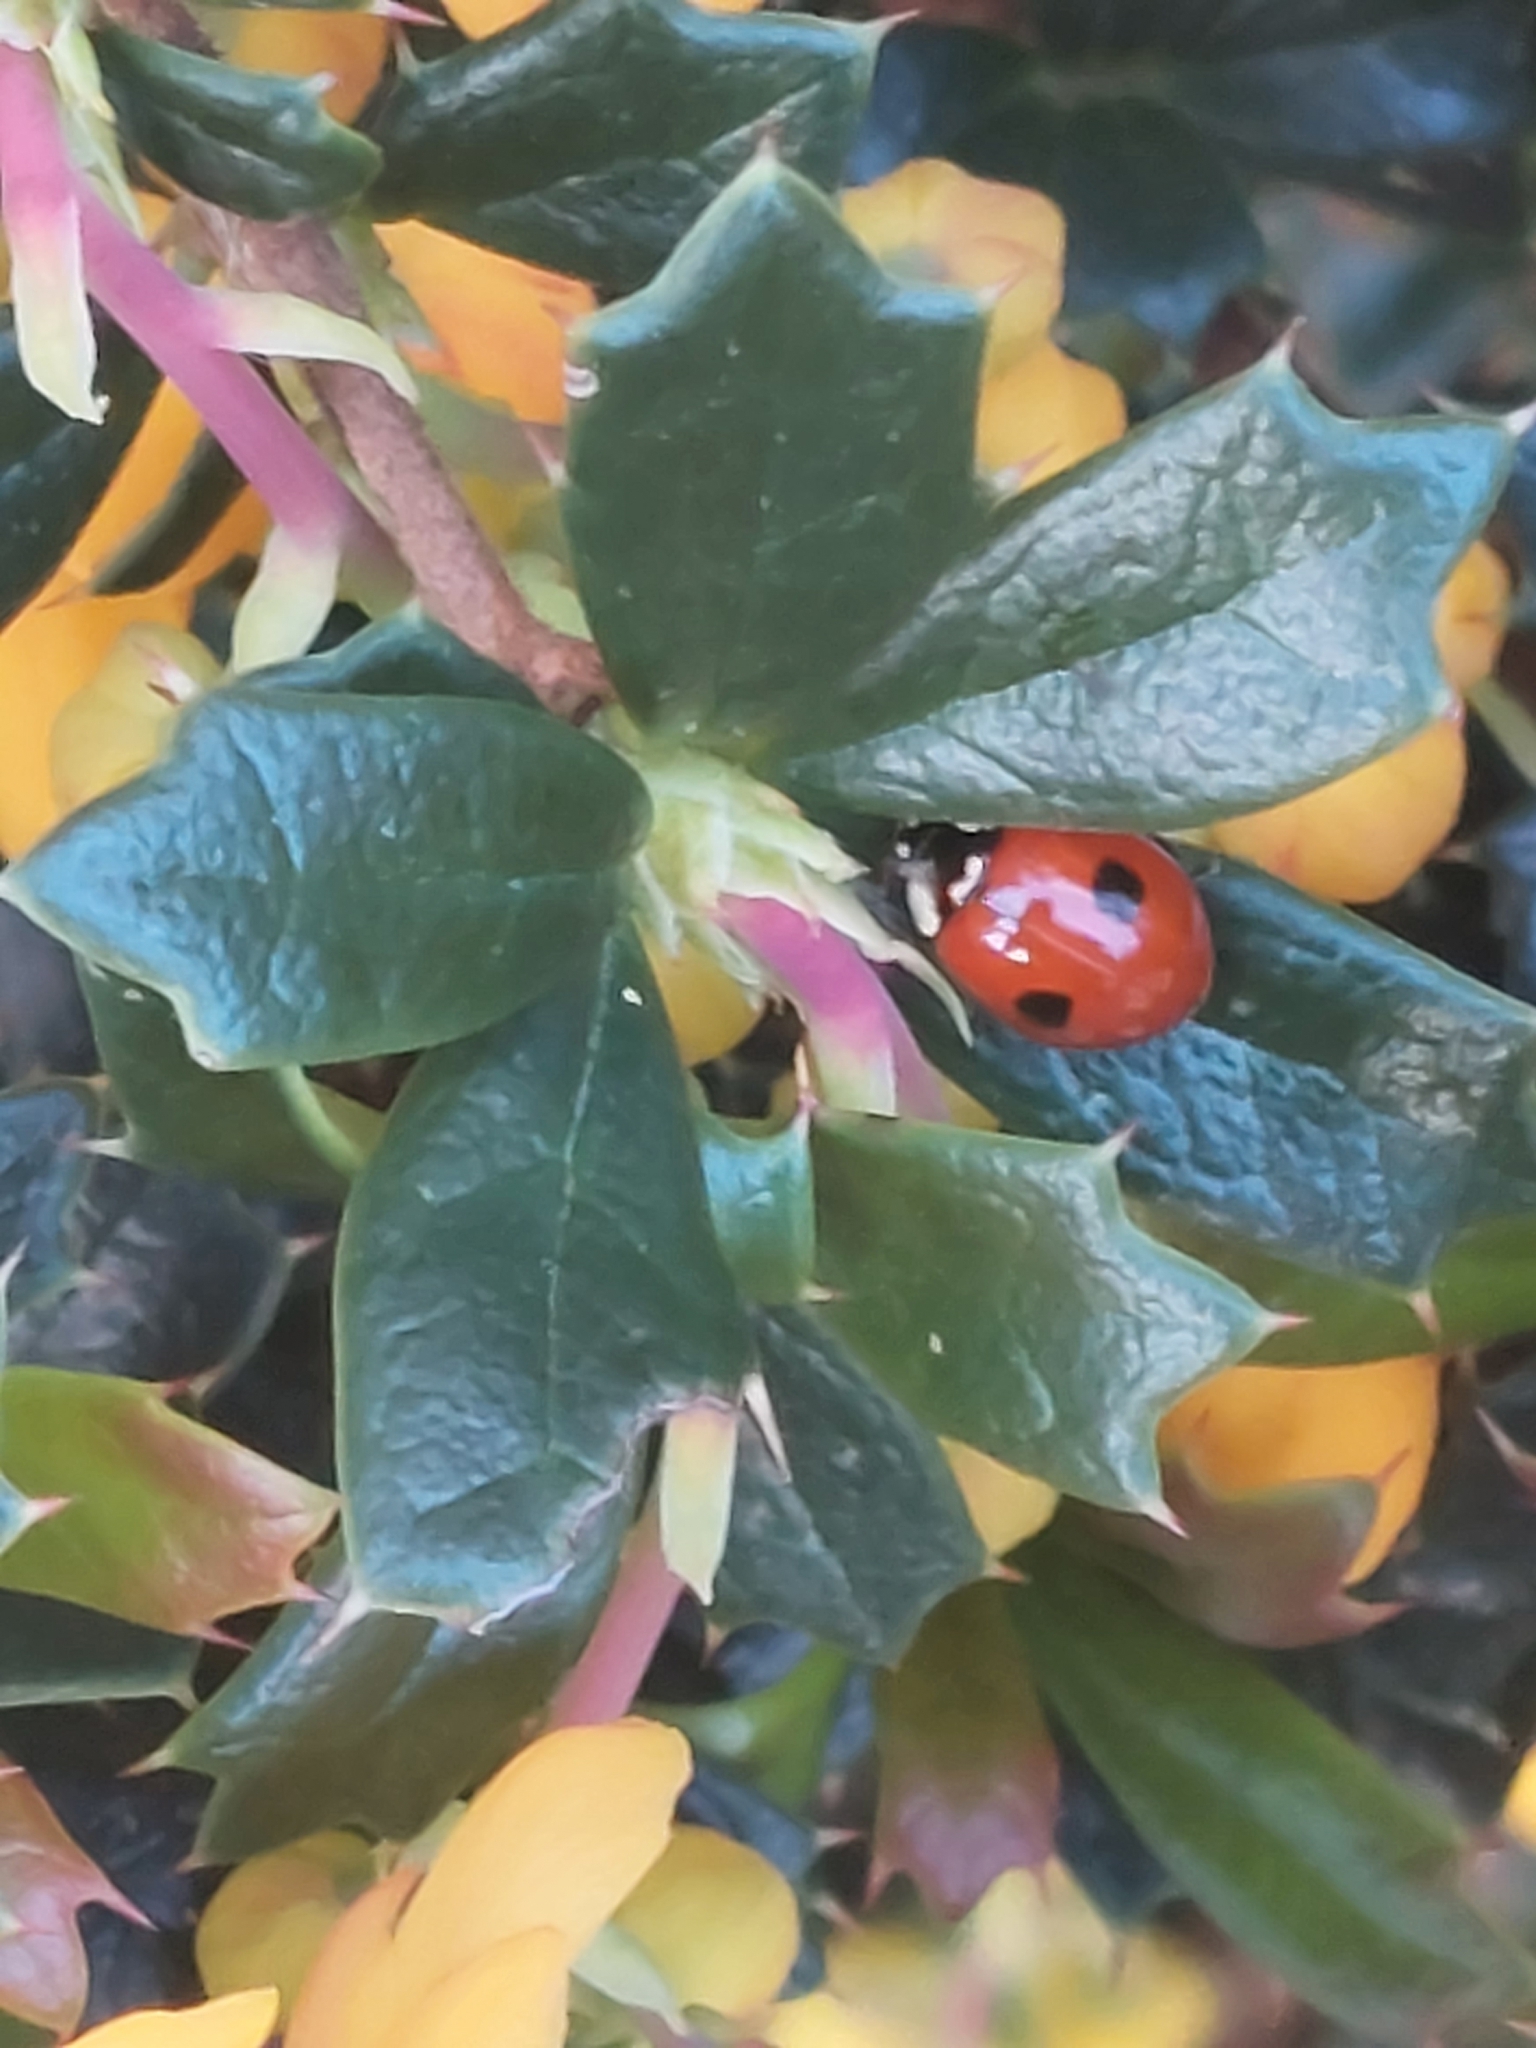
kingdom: Animalia
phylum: Arthropoda
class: Insecta
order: Coleoptera
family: Coccinellidae
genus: Adalia
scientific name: Adalia bipunctata
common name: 2-spot ladybird
